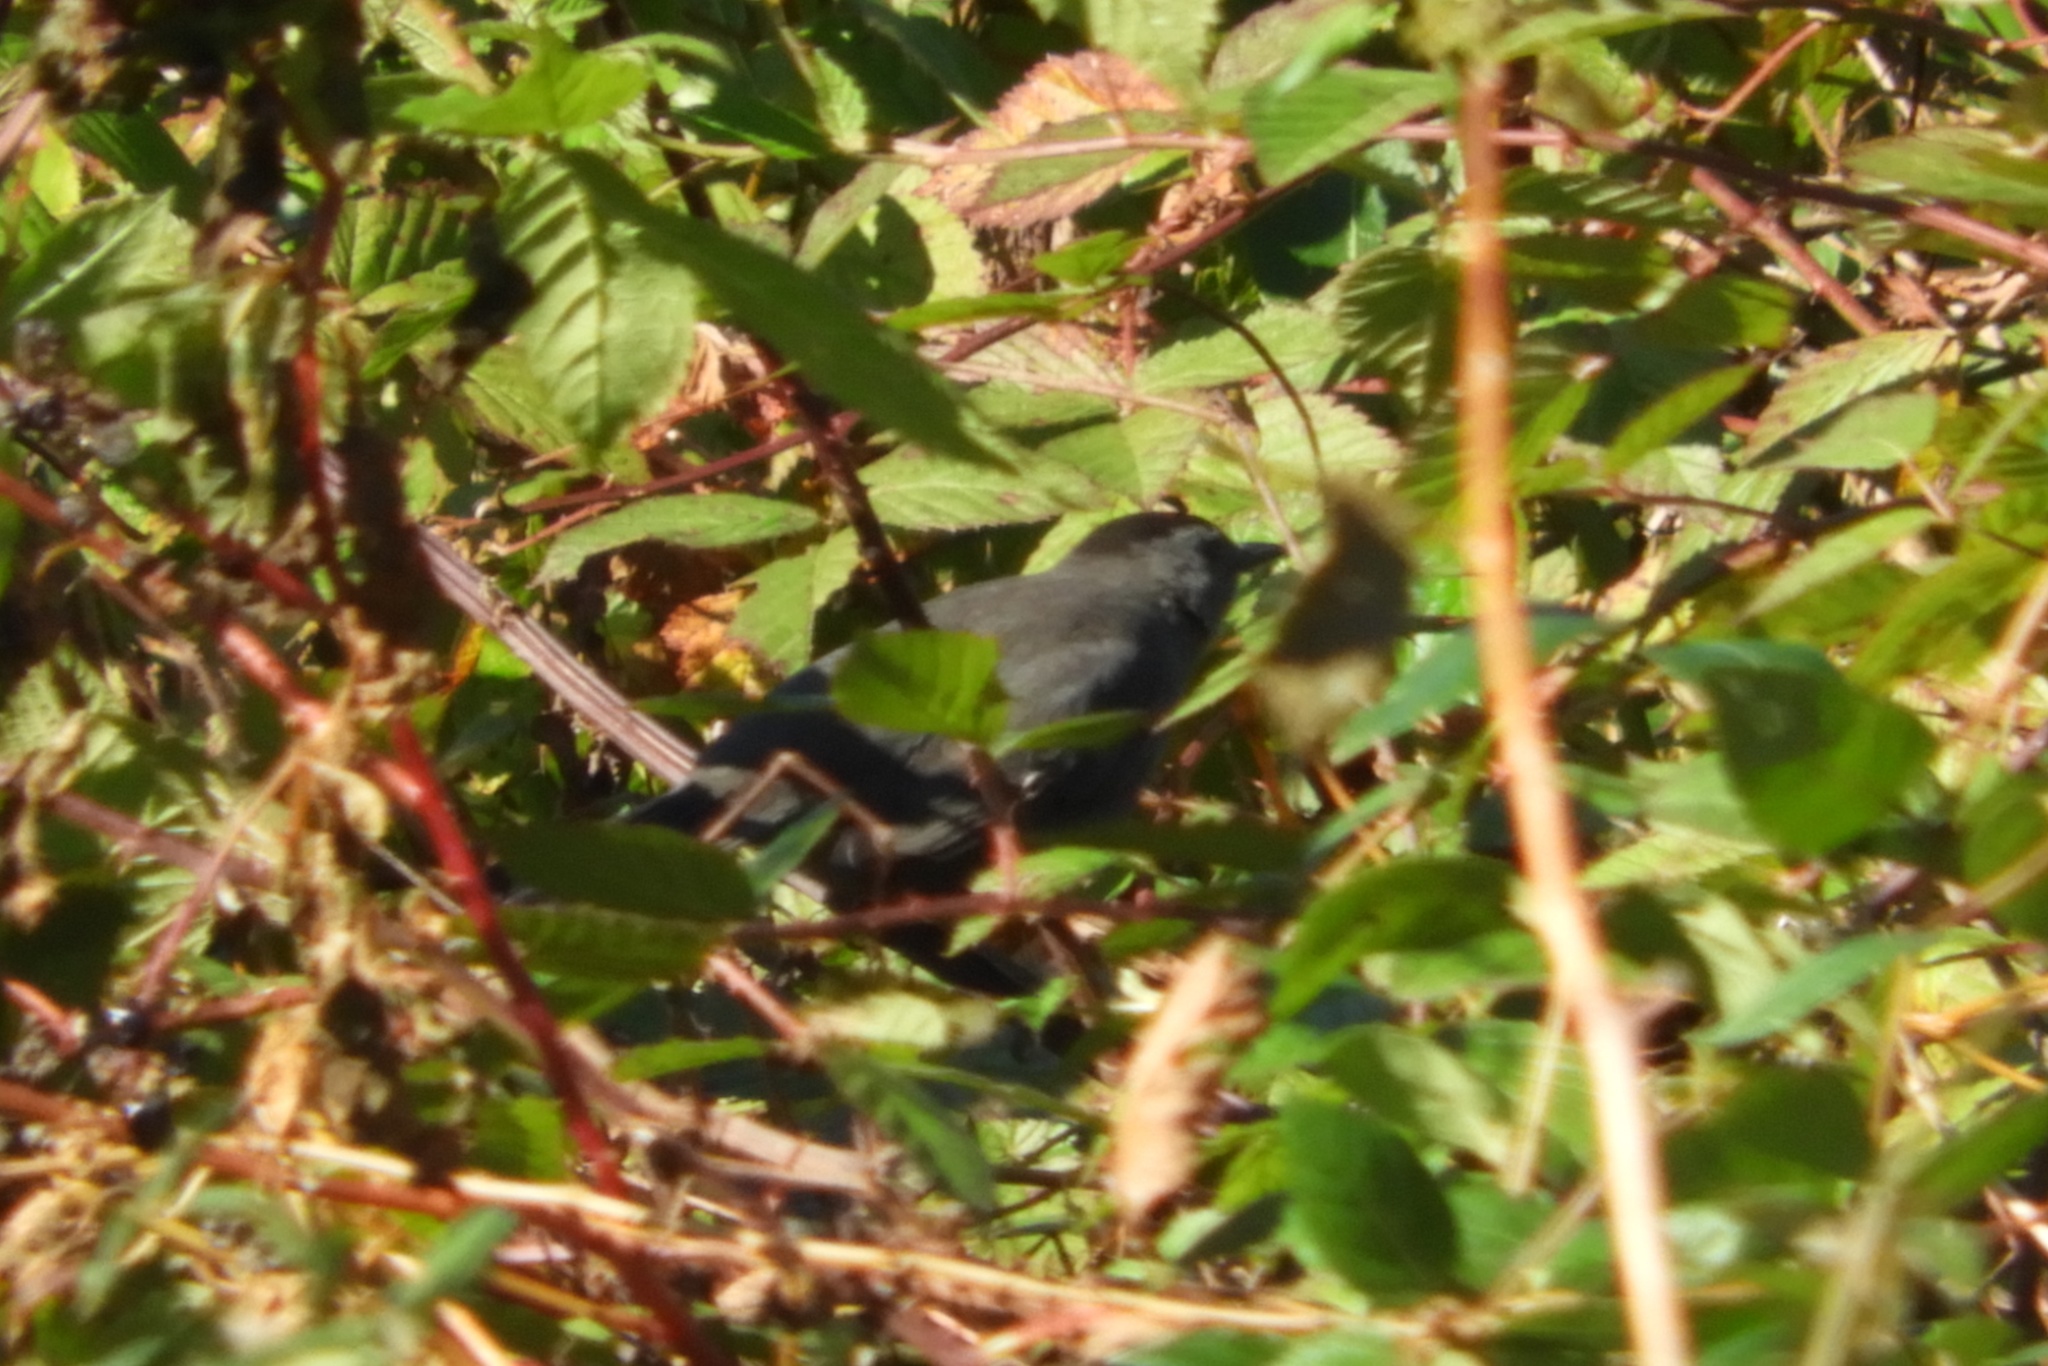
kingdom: Animalia
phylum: Chordata
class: Aves
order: Passeriformes
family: Mimidae
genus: Dumetella
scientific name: Dumetella carolinensis
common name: Gray catbird
